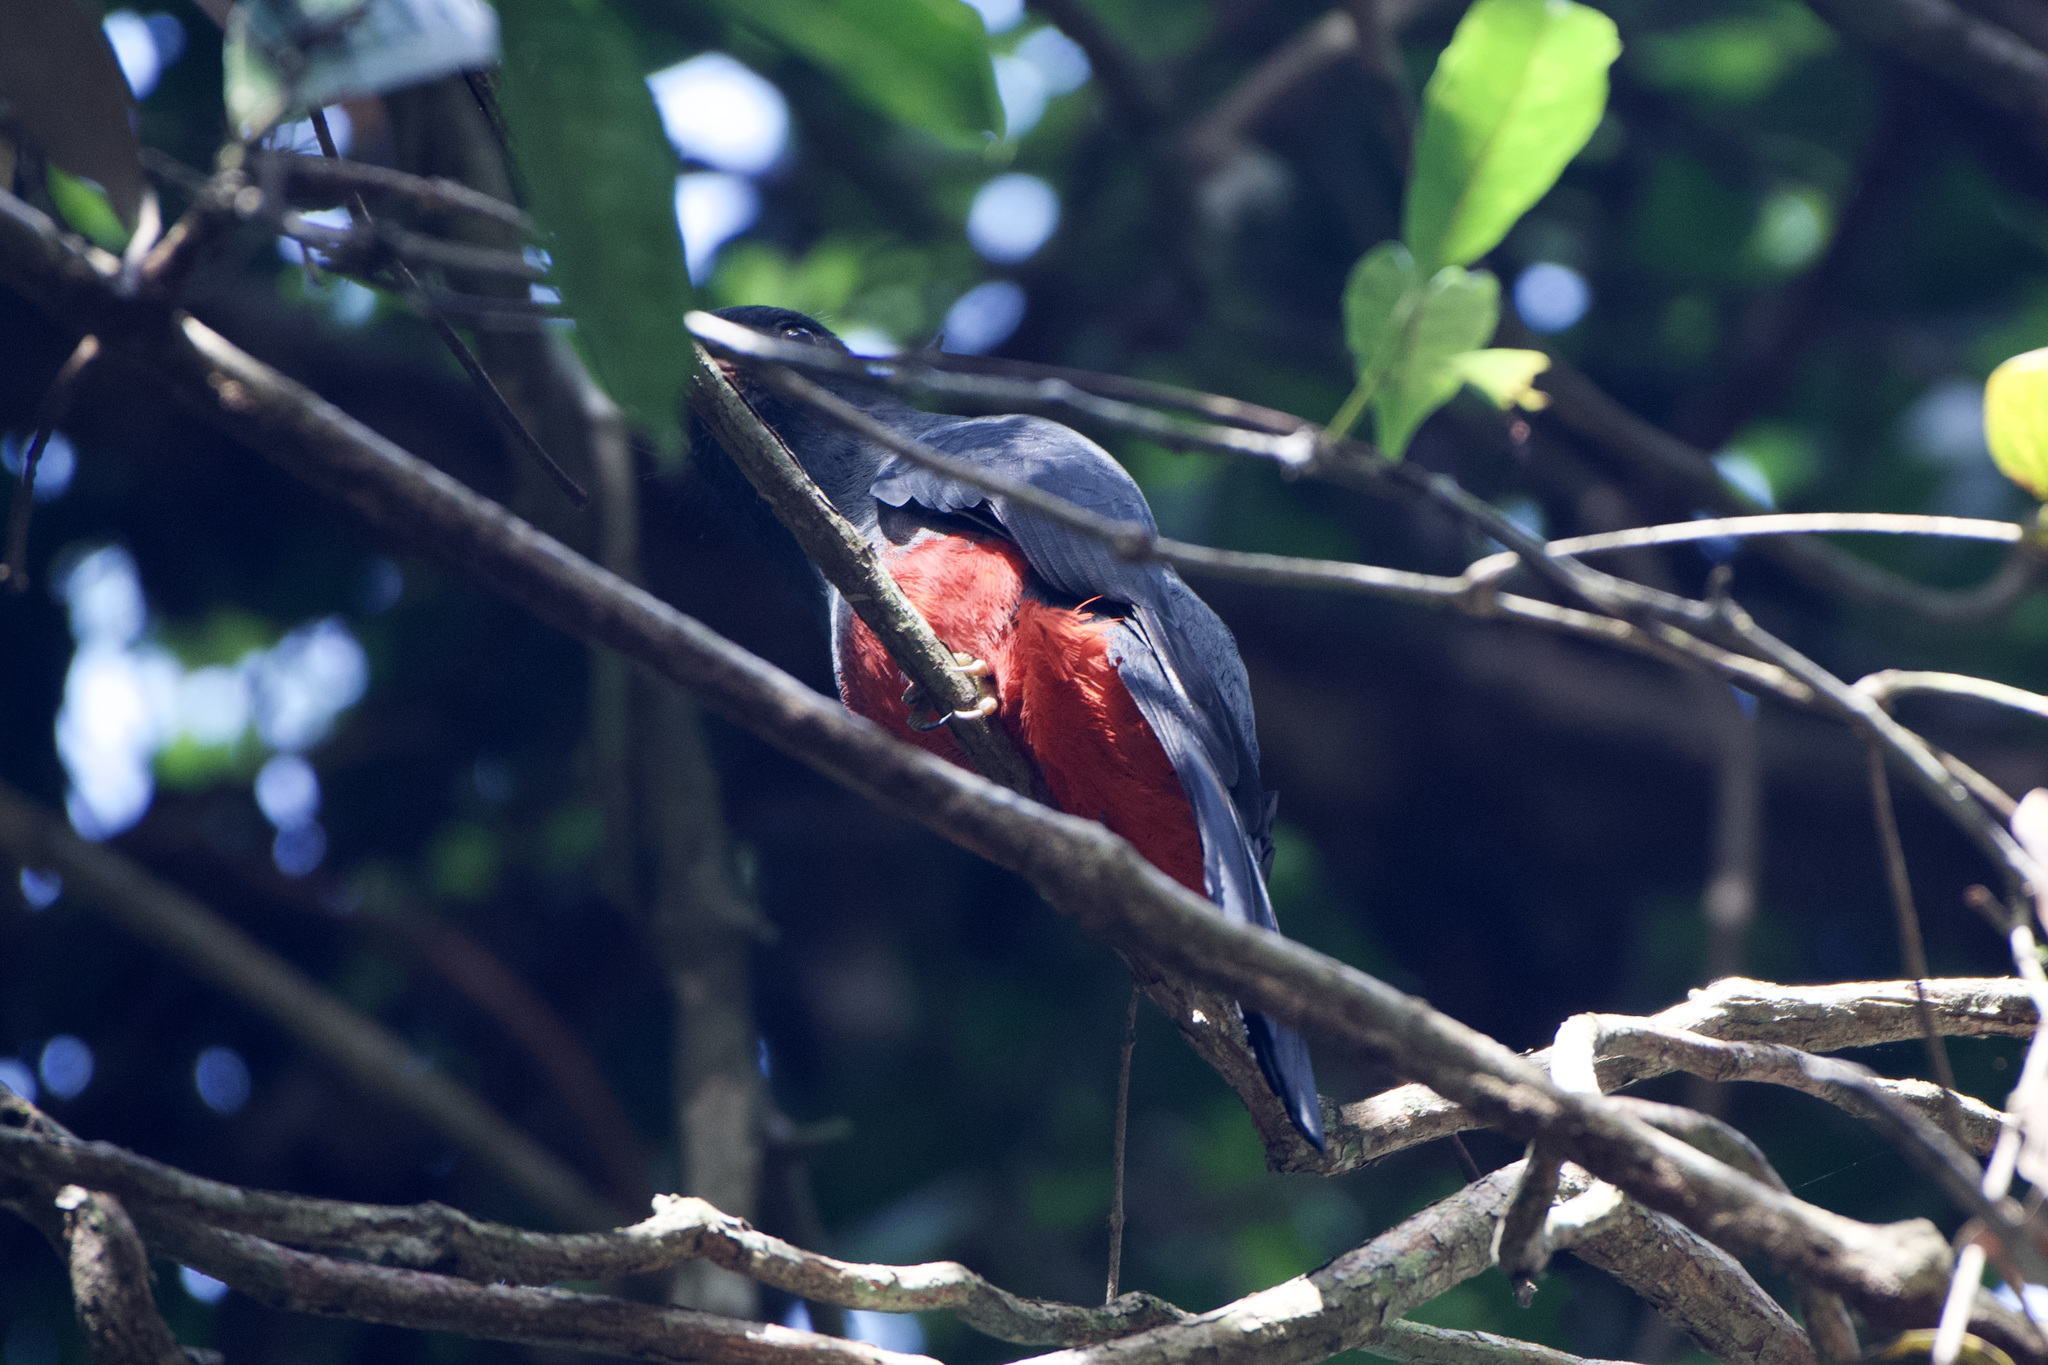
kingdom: Animalia
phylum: Chordata
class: Aves
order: Trogoniformes
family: Trogonidae
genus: Trogon
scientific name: Trogon massena
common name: Slaty-tailed trogon
